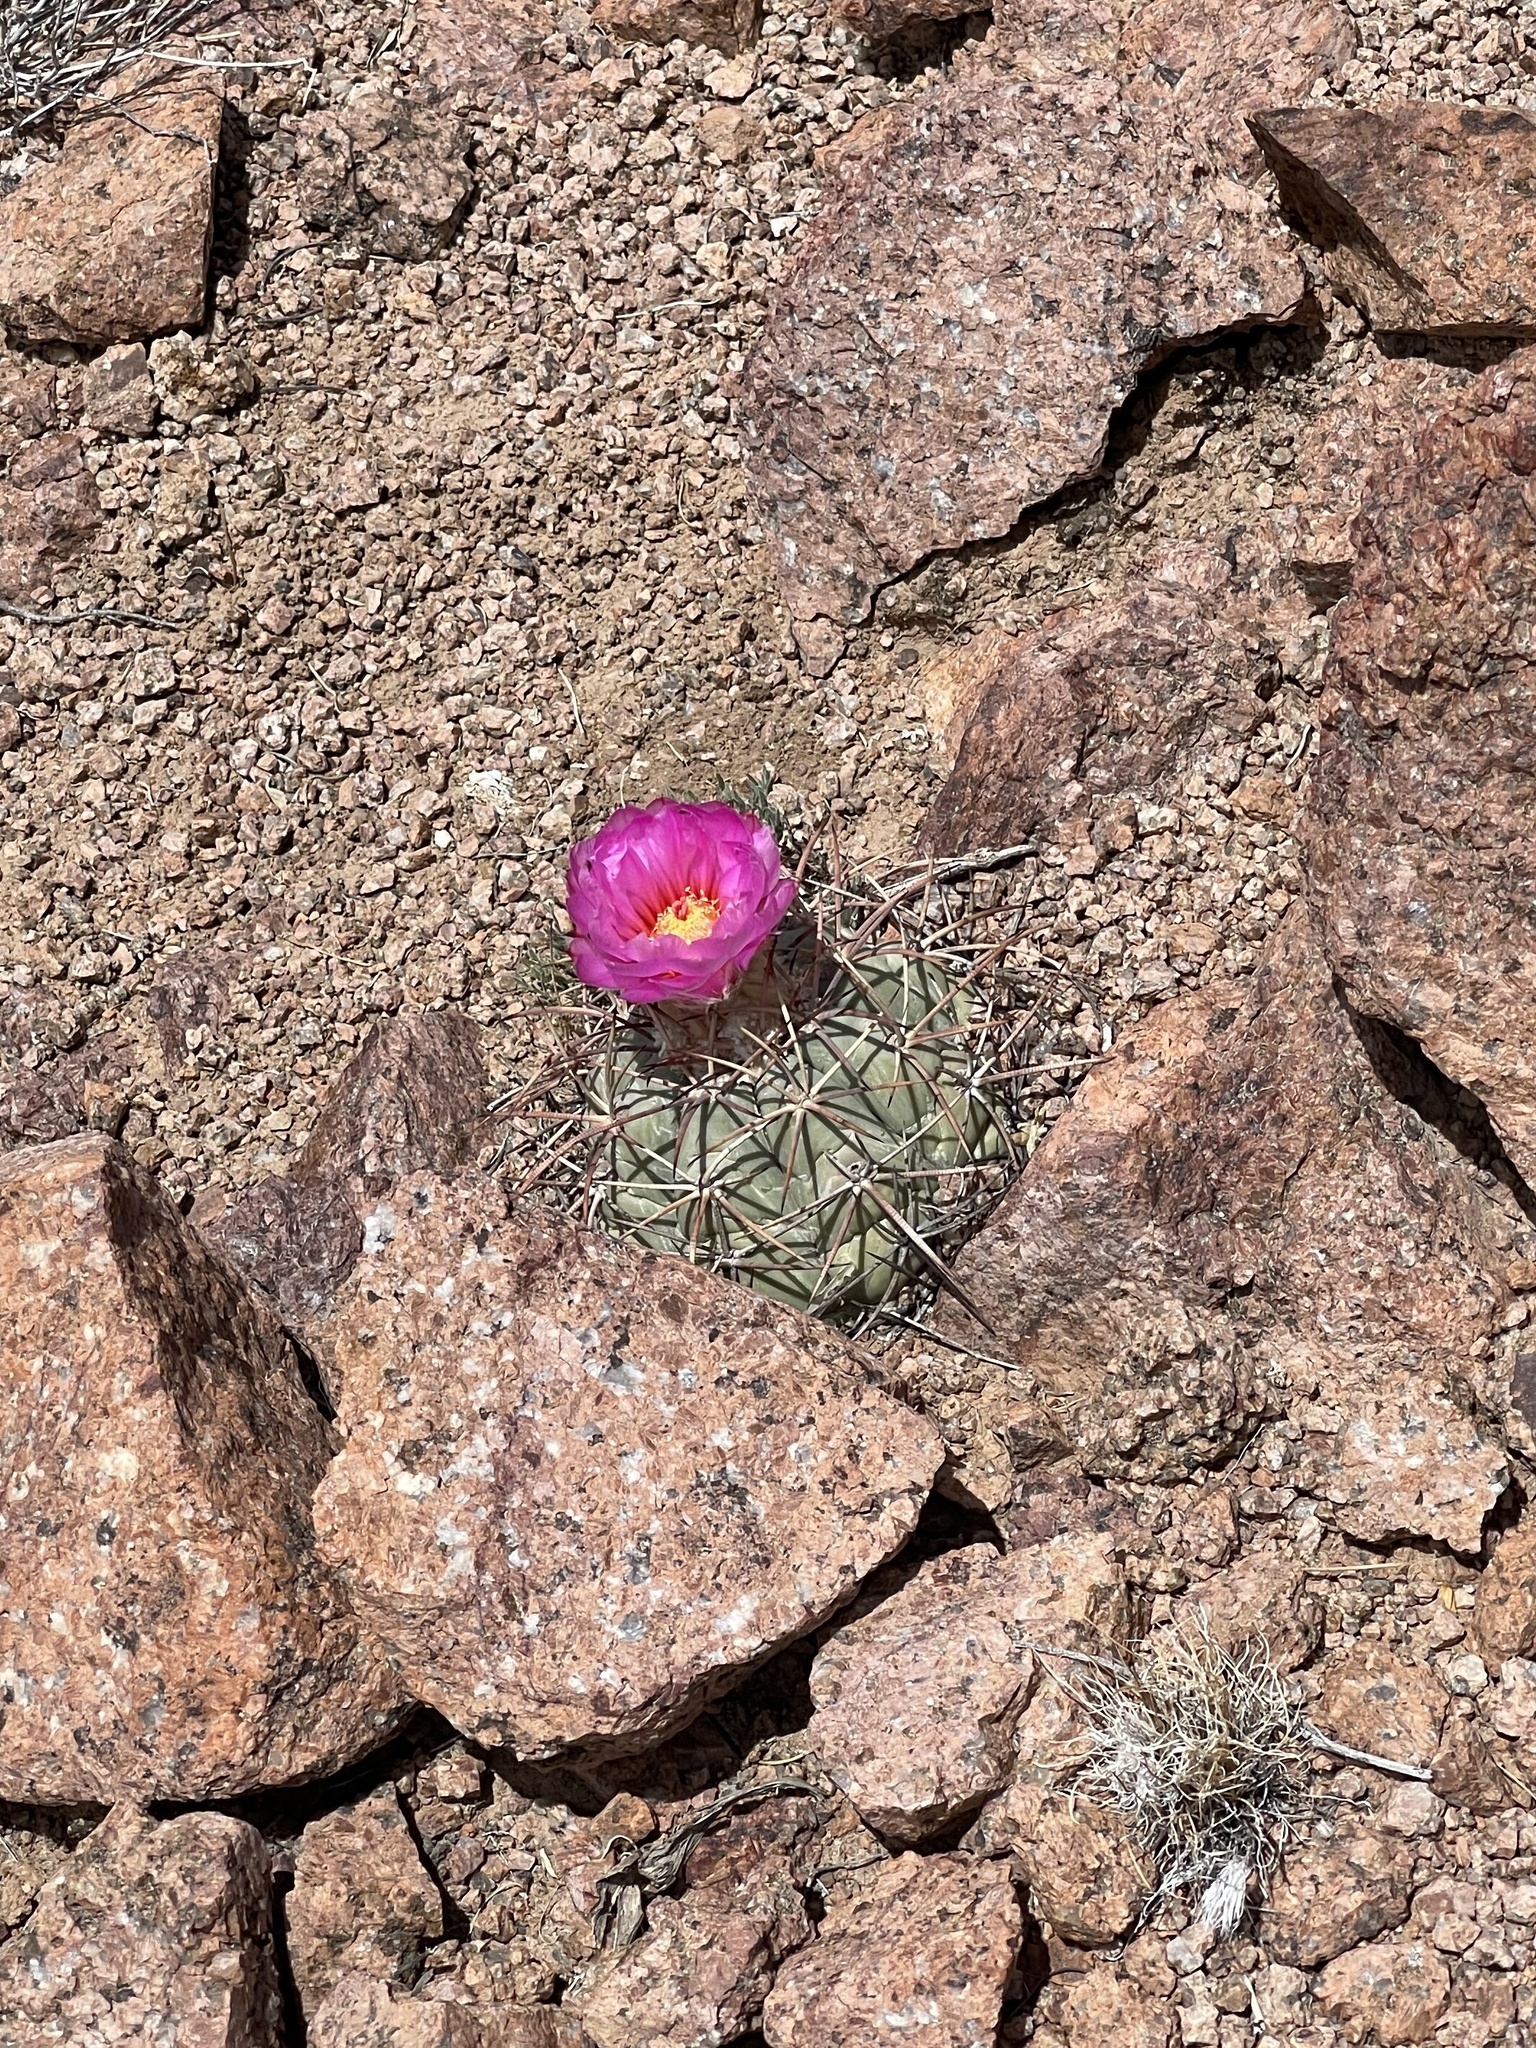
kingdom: Plantae
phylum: Tracheophyta
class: Magnoliopsida
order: Caryophyllales
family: Cactaceae
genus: Echinocactus
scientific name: Echinocactus horizonthalonius
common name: Devilshead
